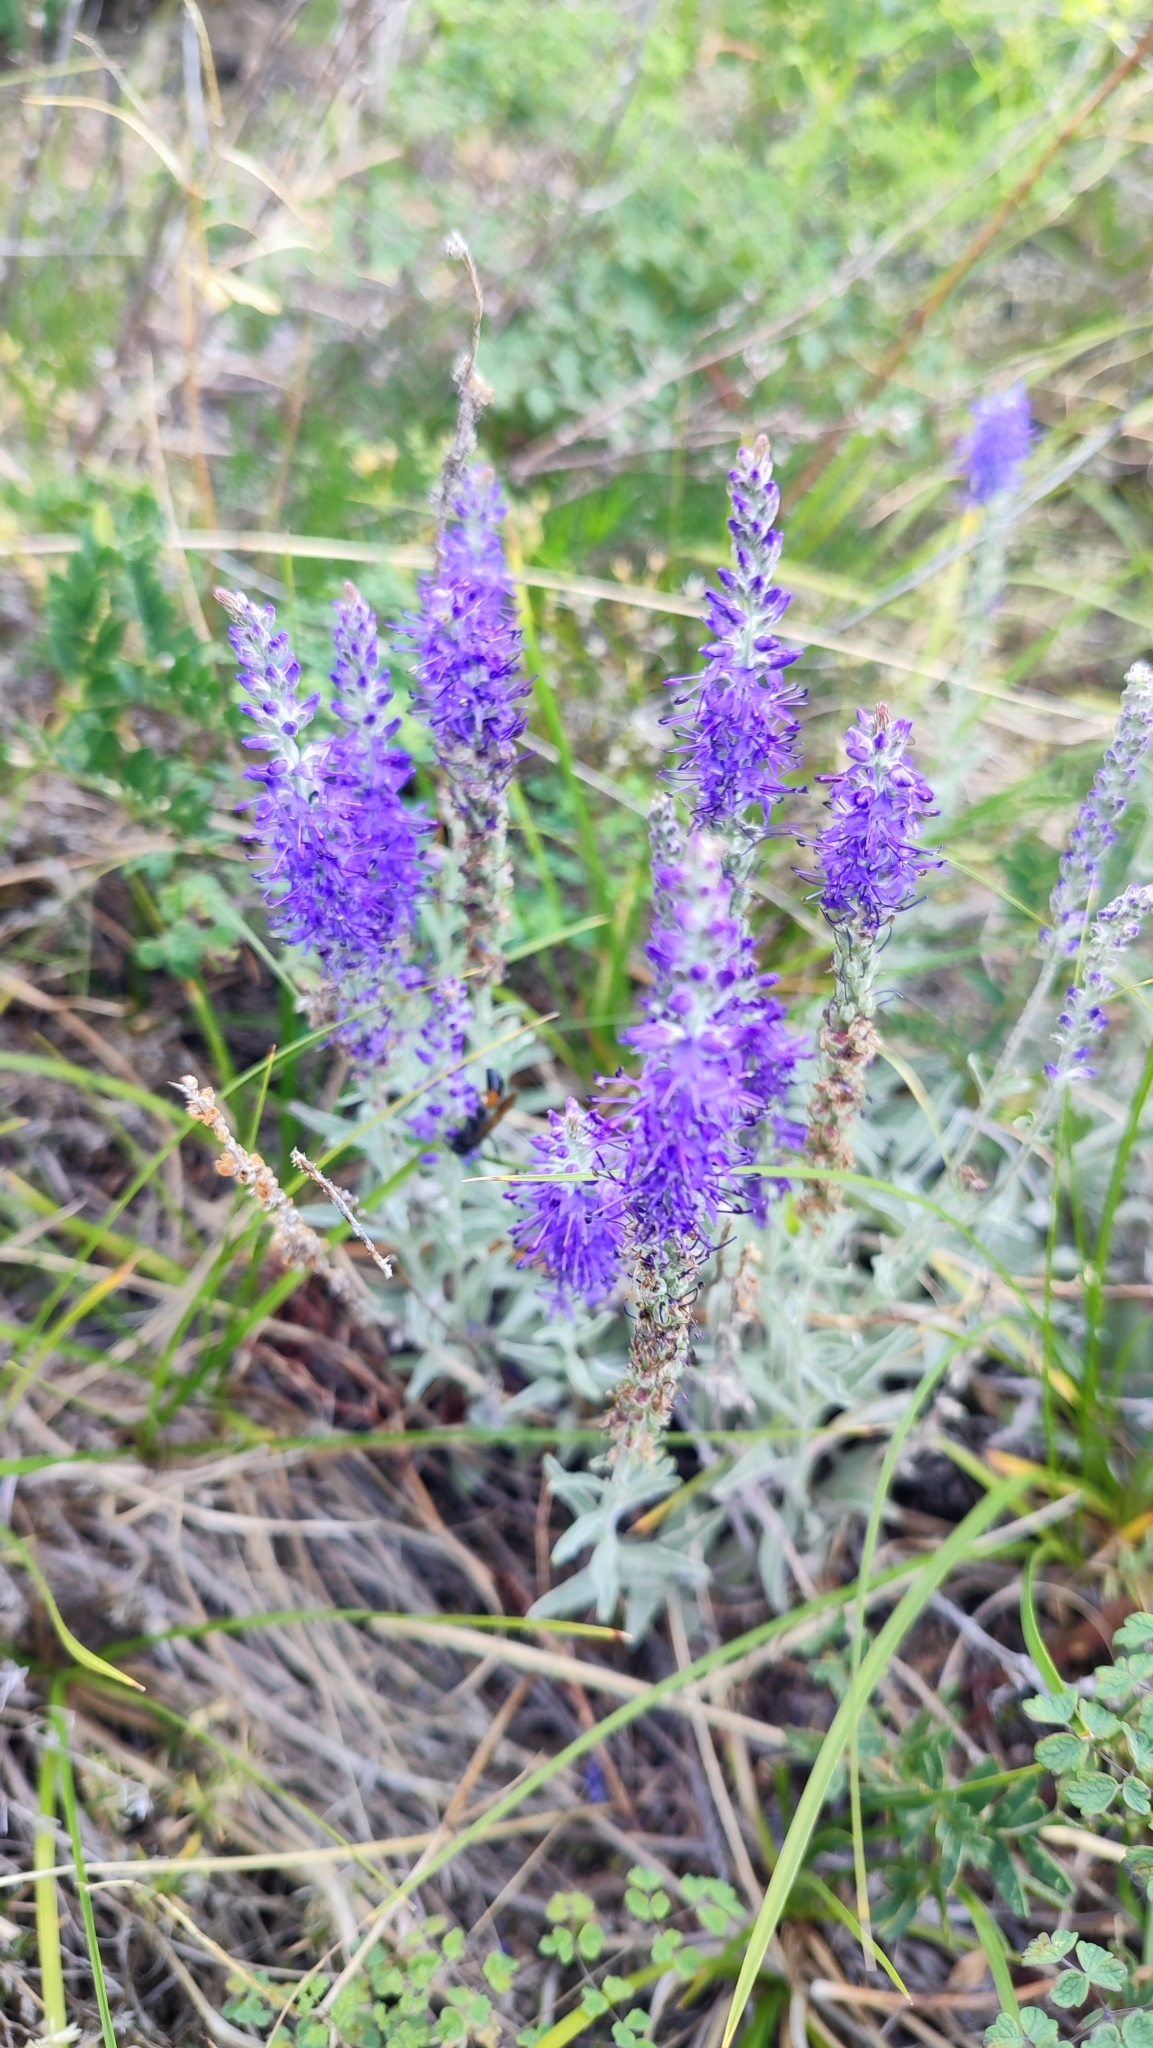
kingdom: Plantae
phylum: Tracheophyta
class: Magnoliopsida
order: Lamiales
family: Plantaginaceae
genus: Veronica
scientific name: Veronica incana
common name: Silver speedwell
